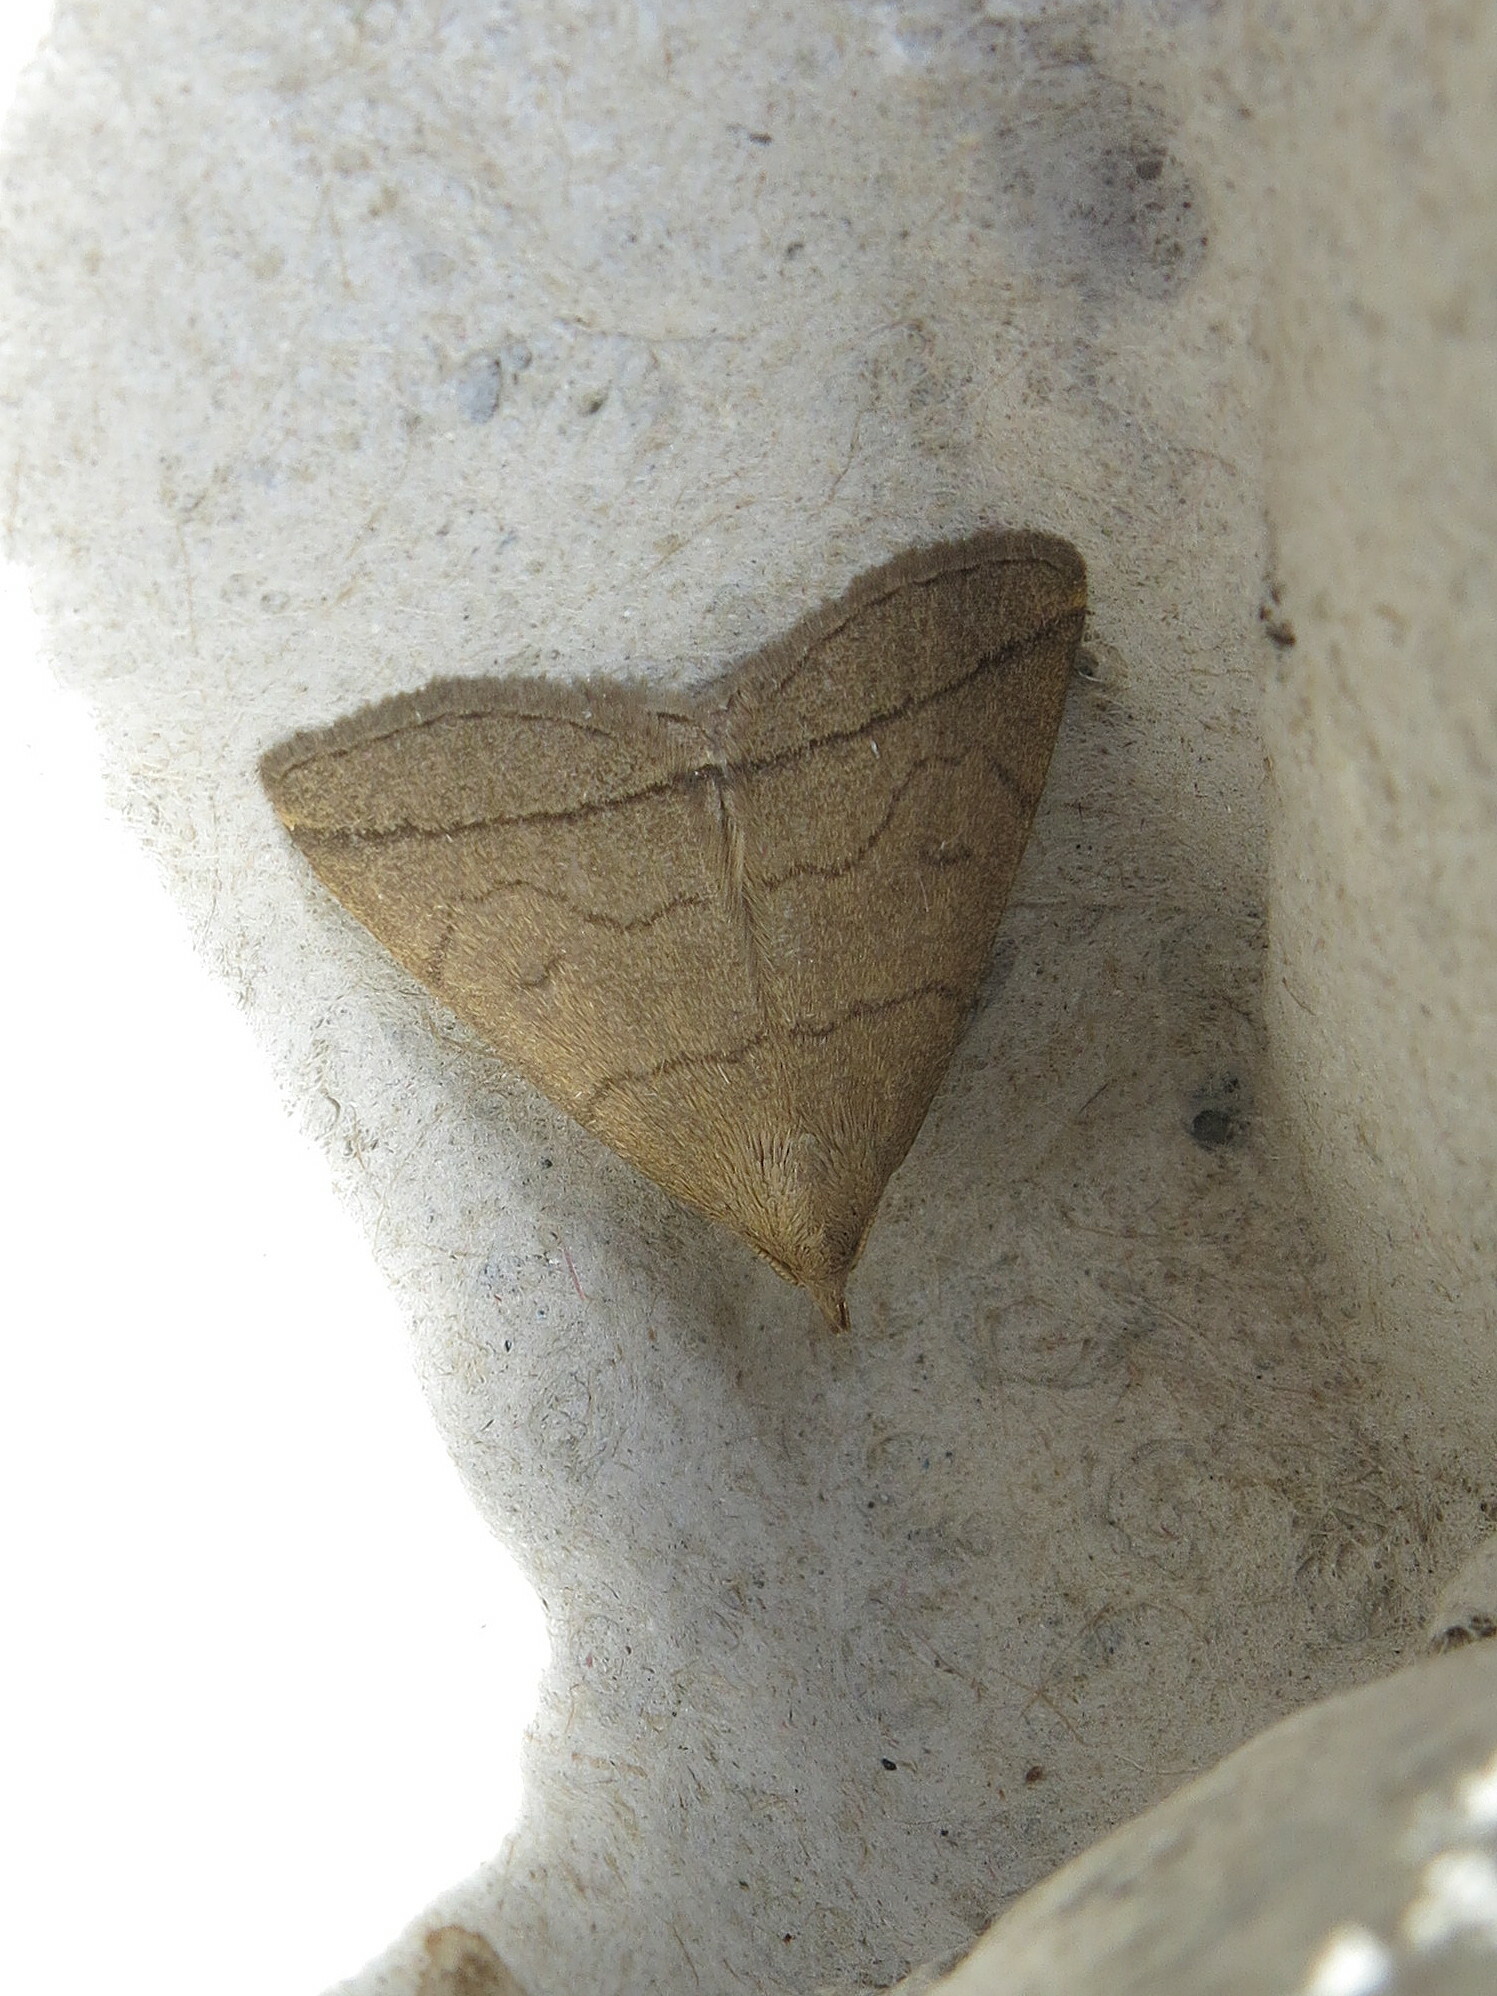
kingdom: Animalia
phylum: Arthropoda
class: Insecta
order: Lepidoptera
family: Erebidae
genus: Herminia
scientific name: Herminia tarsipennalis
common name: Fan-foot
